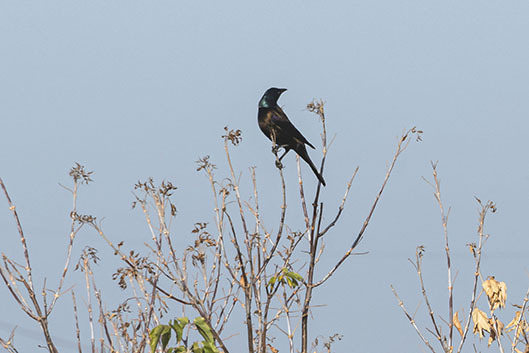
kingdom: Animalia
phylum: Chordata
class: Aves
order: Passeriformes
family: Icteridae
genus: Quiscalus
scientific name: Quiscalus quiscula
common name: Common grackle
